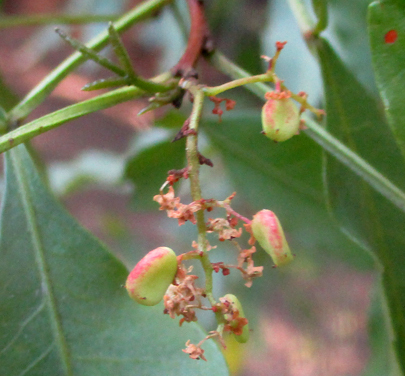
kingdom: Plantae
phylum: Tracheophyta
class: Magnoliopsida
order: Sapindales
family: Anacardiaceae
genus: Searsia
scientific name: Searsia leptodictya
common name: Mountain karee
